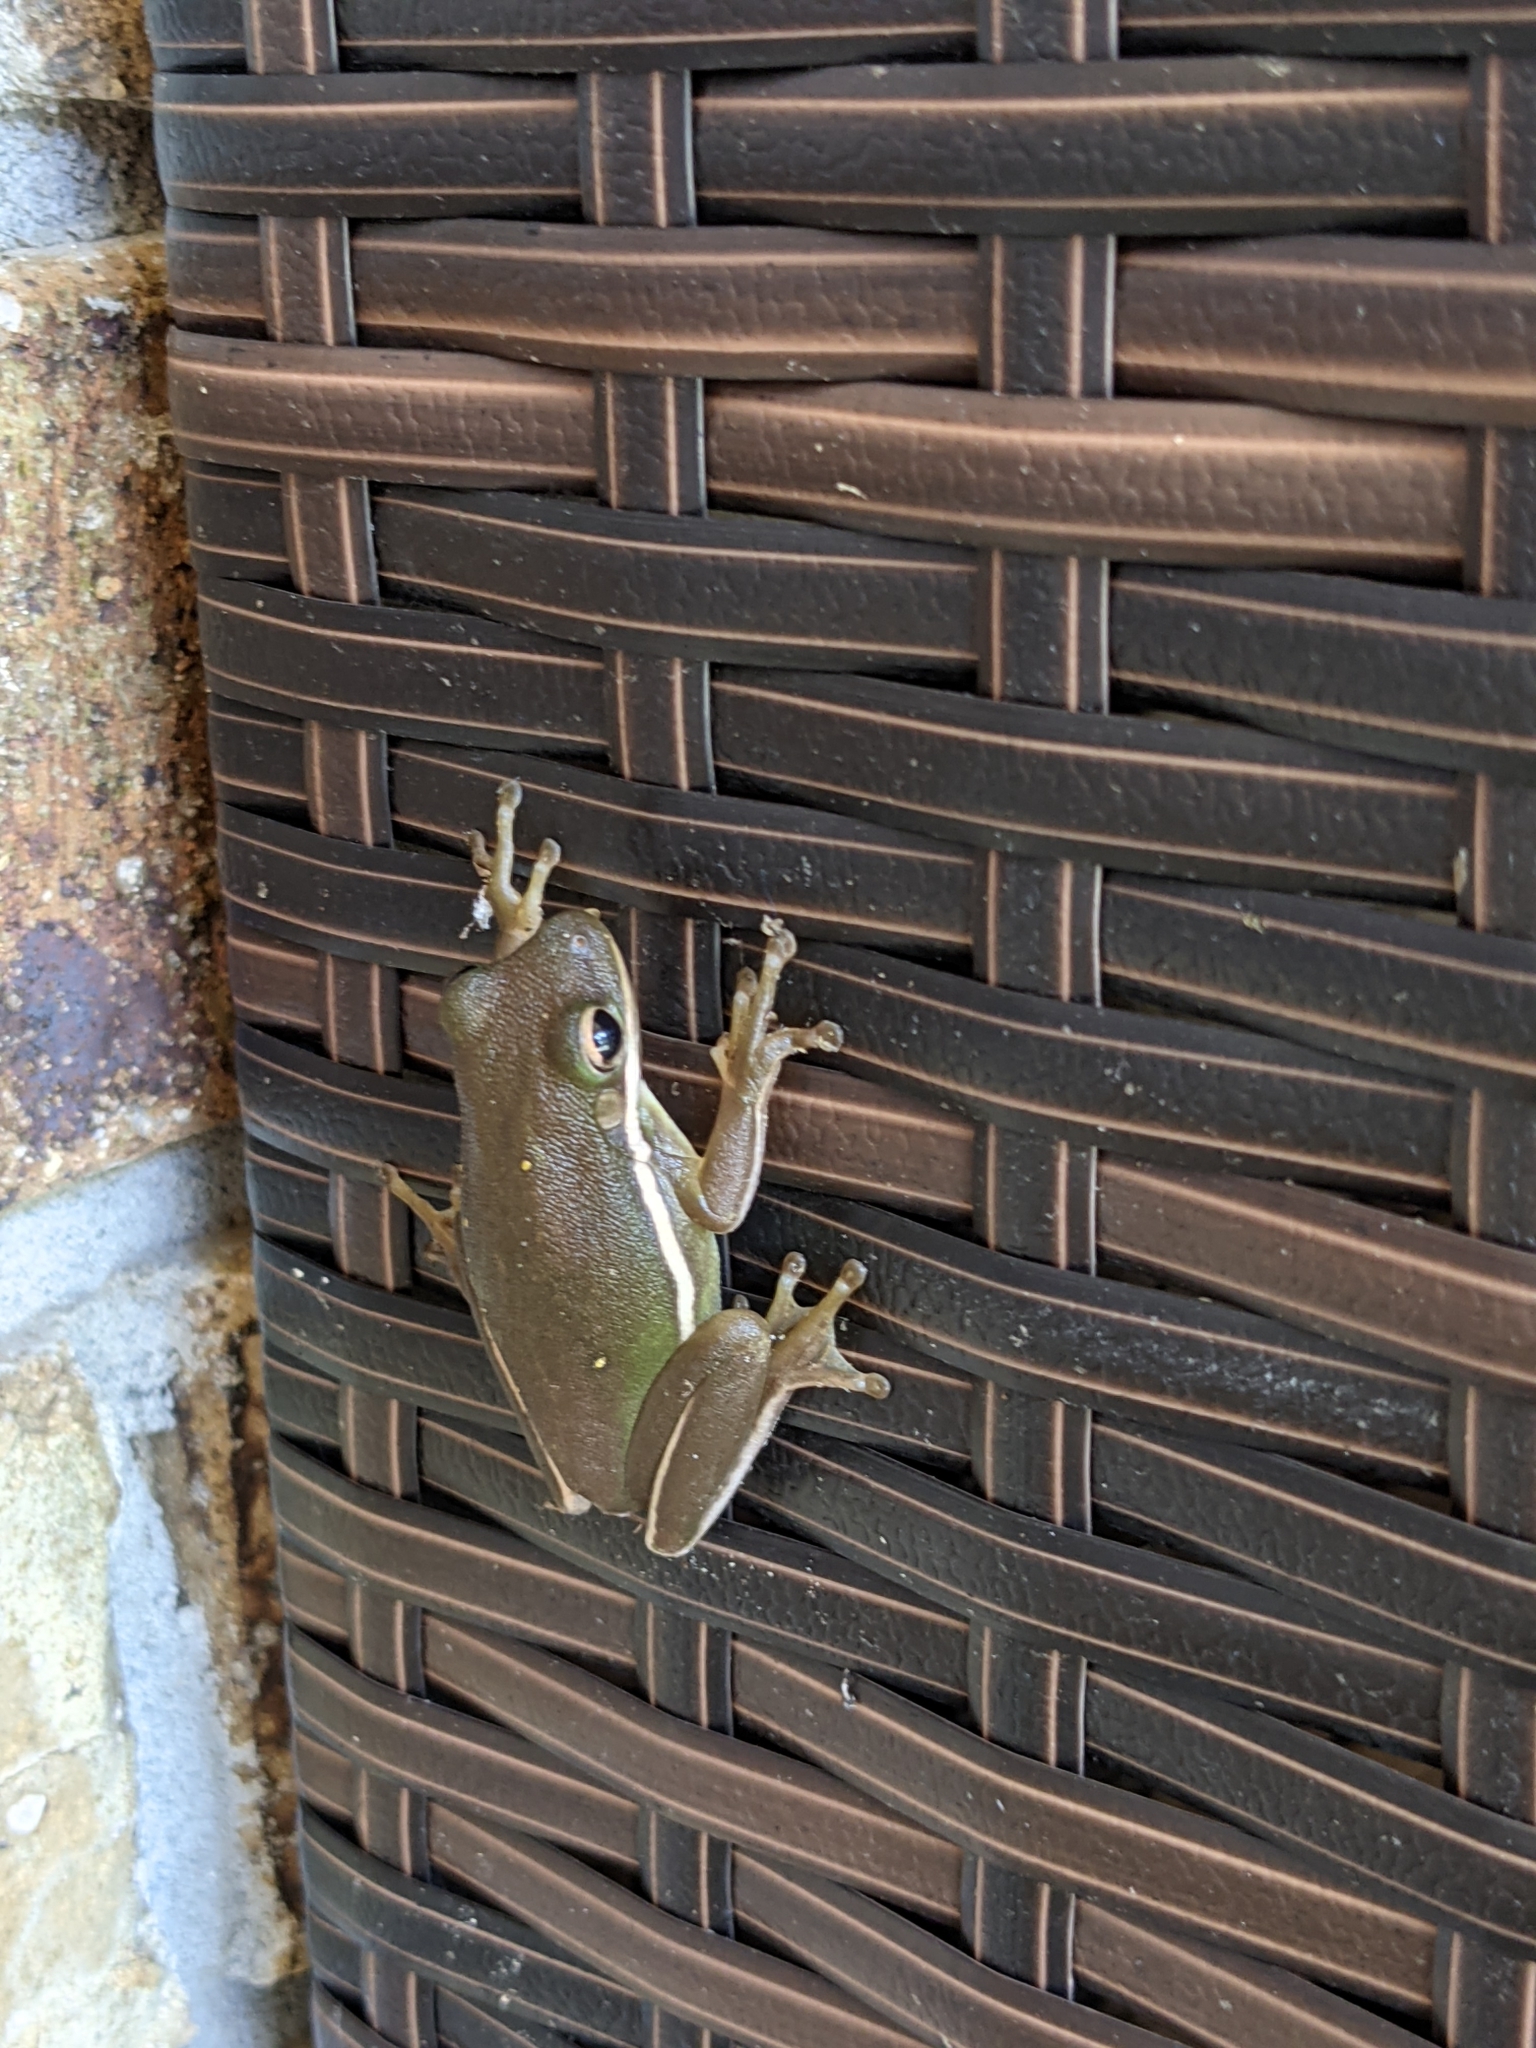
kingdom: Animalia
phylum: Chordata
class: Amphibia
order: Anura
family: Hylidae
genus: Dryophytes
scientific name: Dryophytes cinereus
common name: Green treefrog
